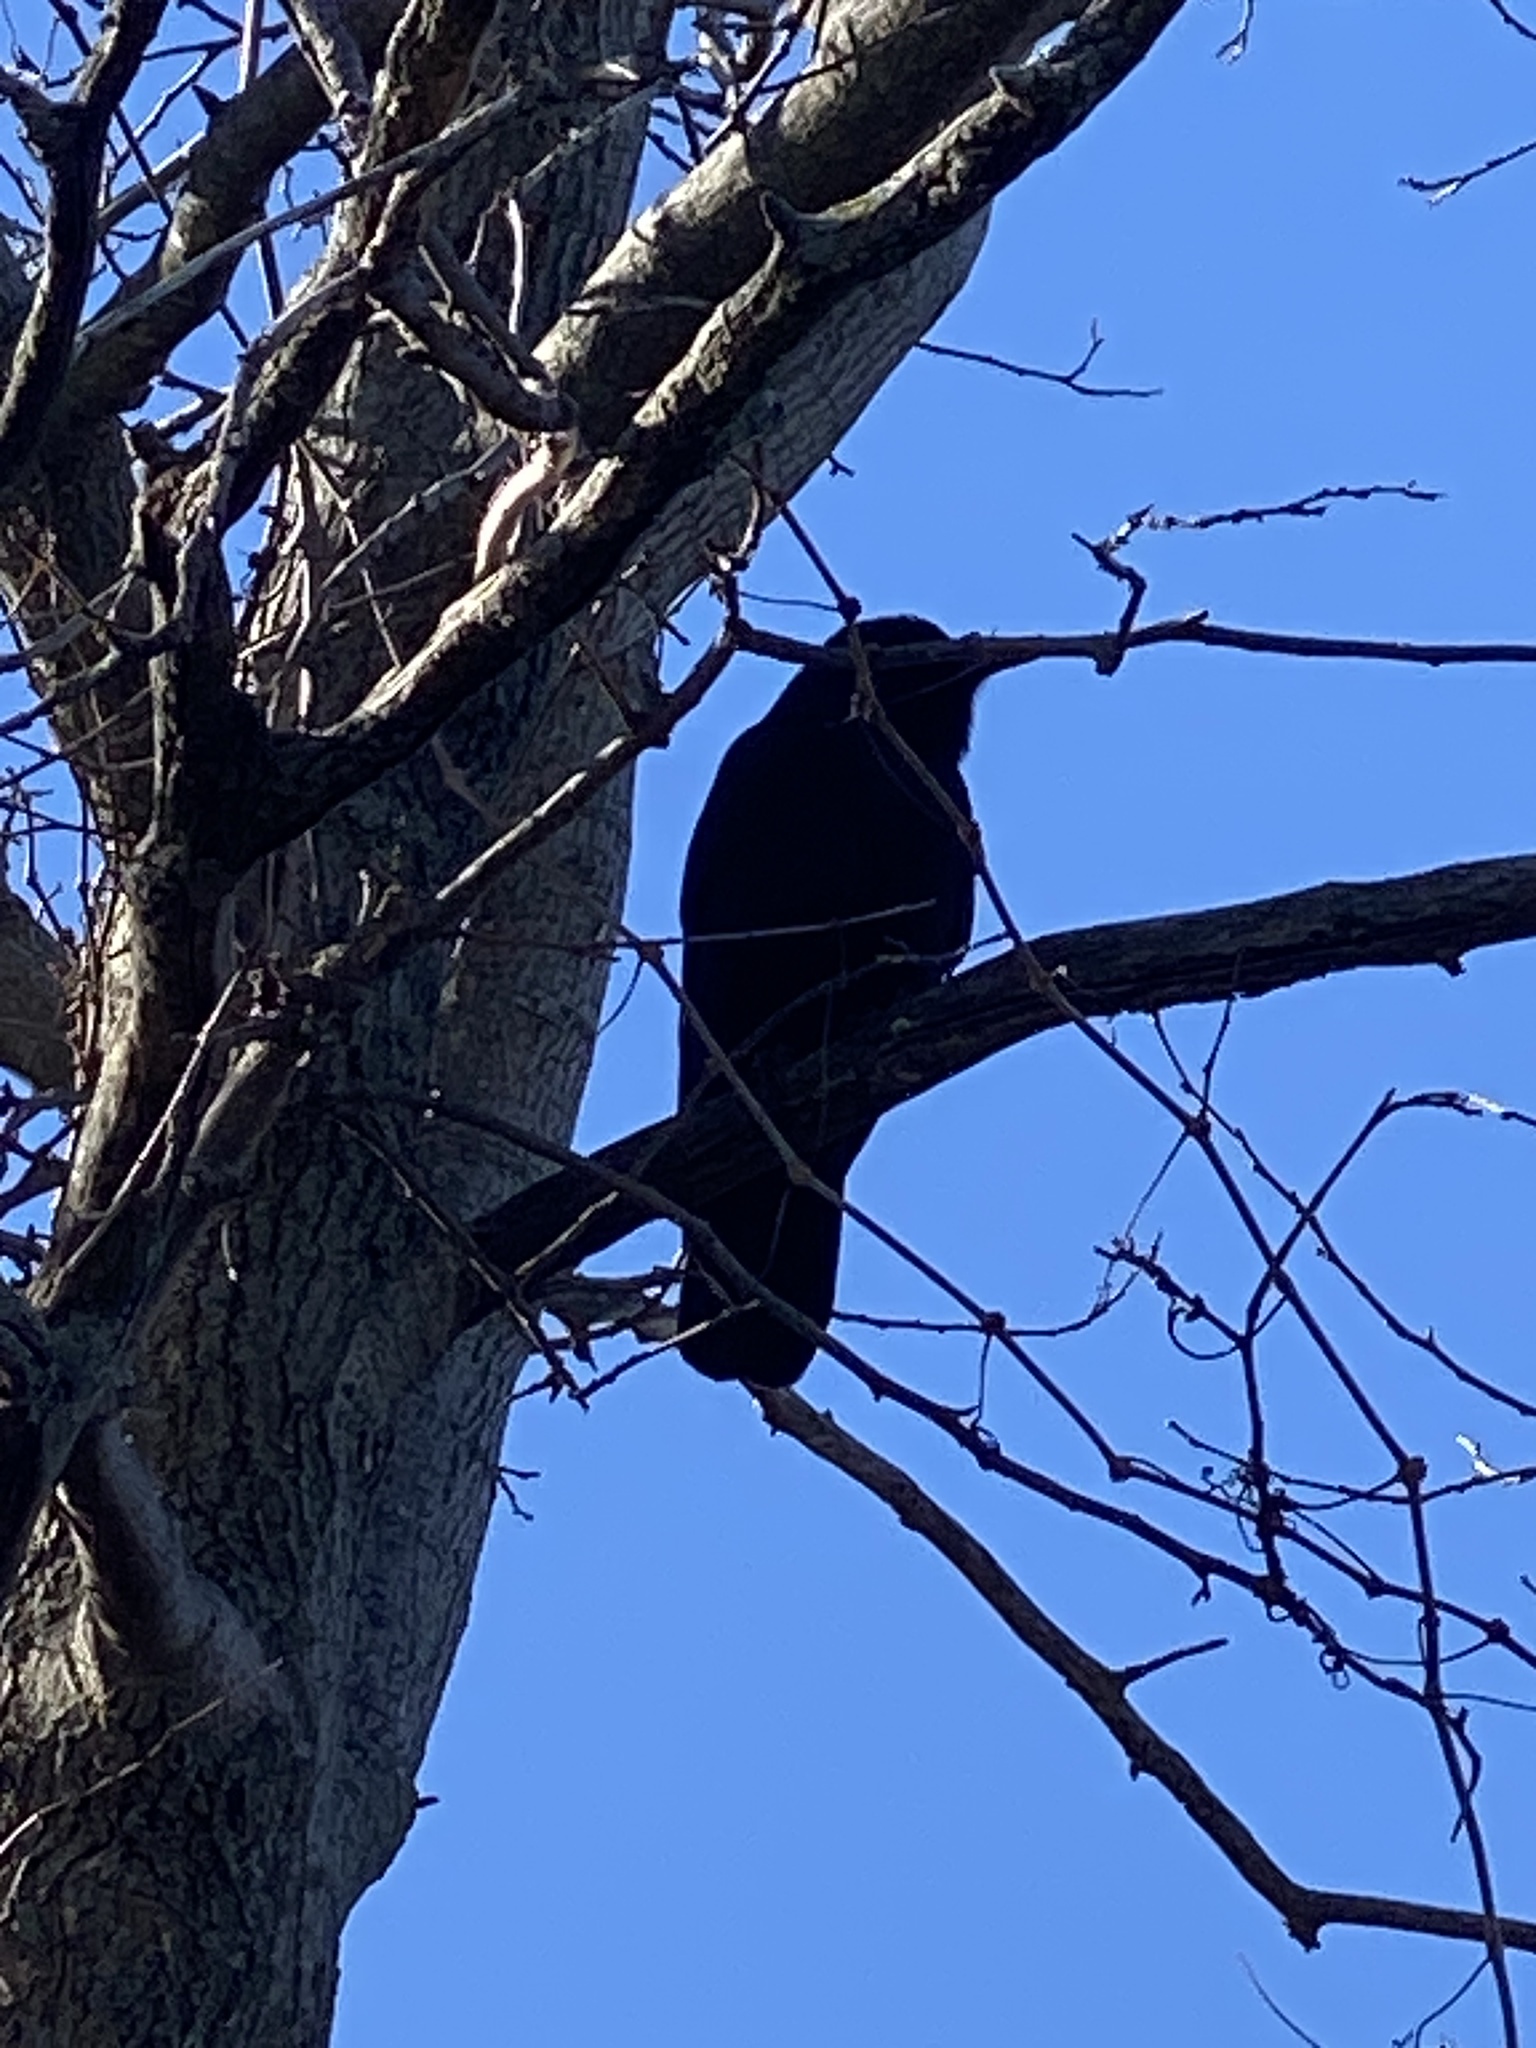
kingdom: Animalia
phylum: Chordata
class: Aves
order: Passeriformes
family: Corvidae
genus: Corvus
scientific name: Corvus ossifragus
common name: Fish crow
